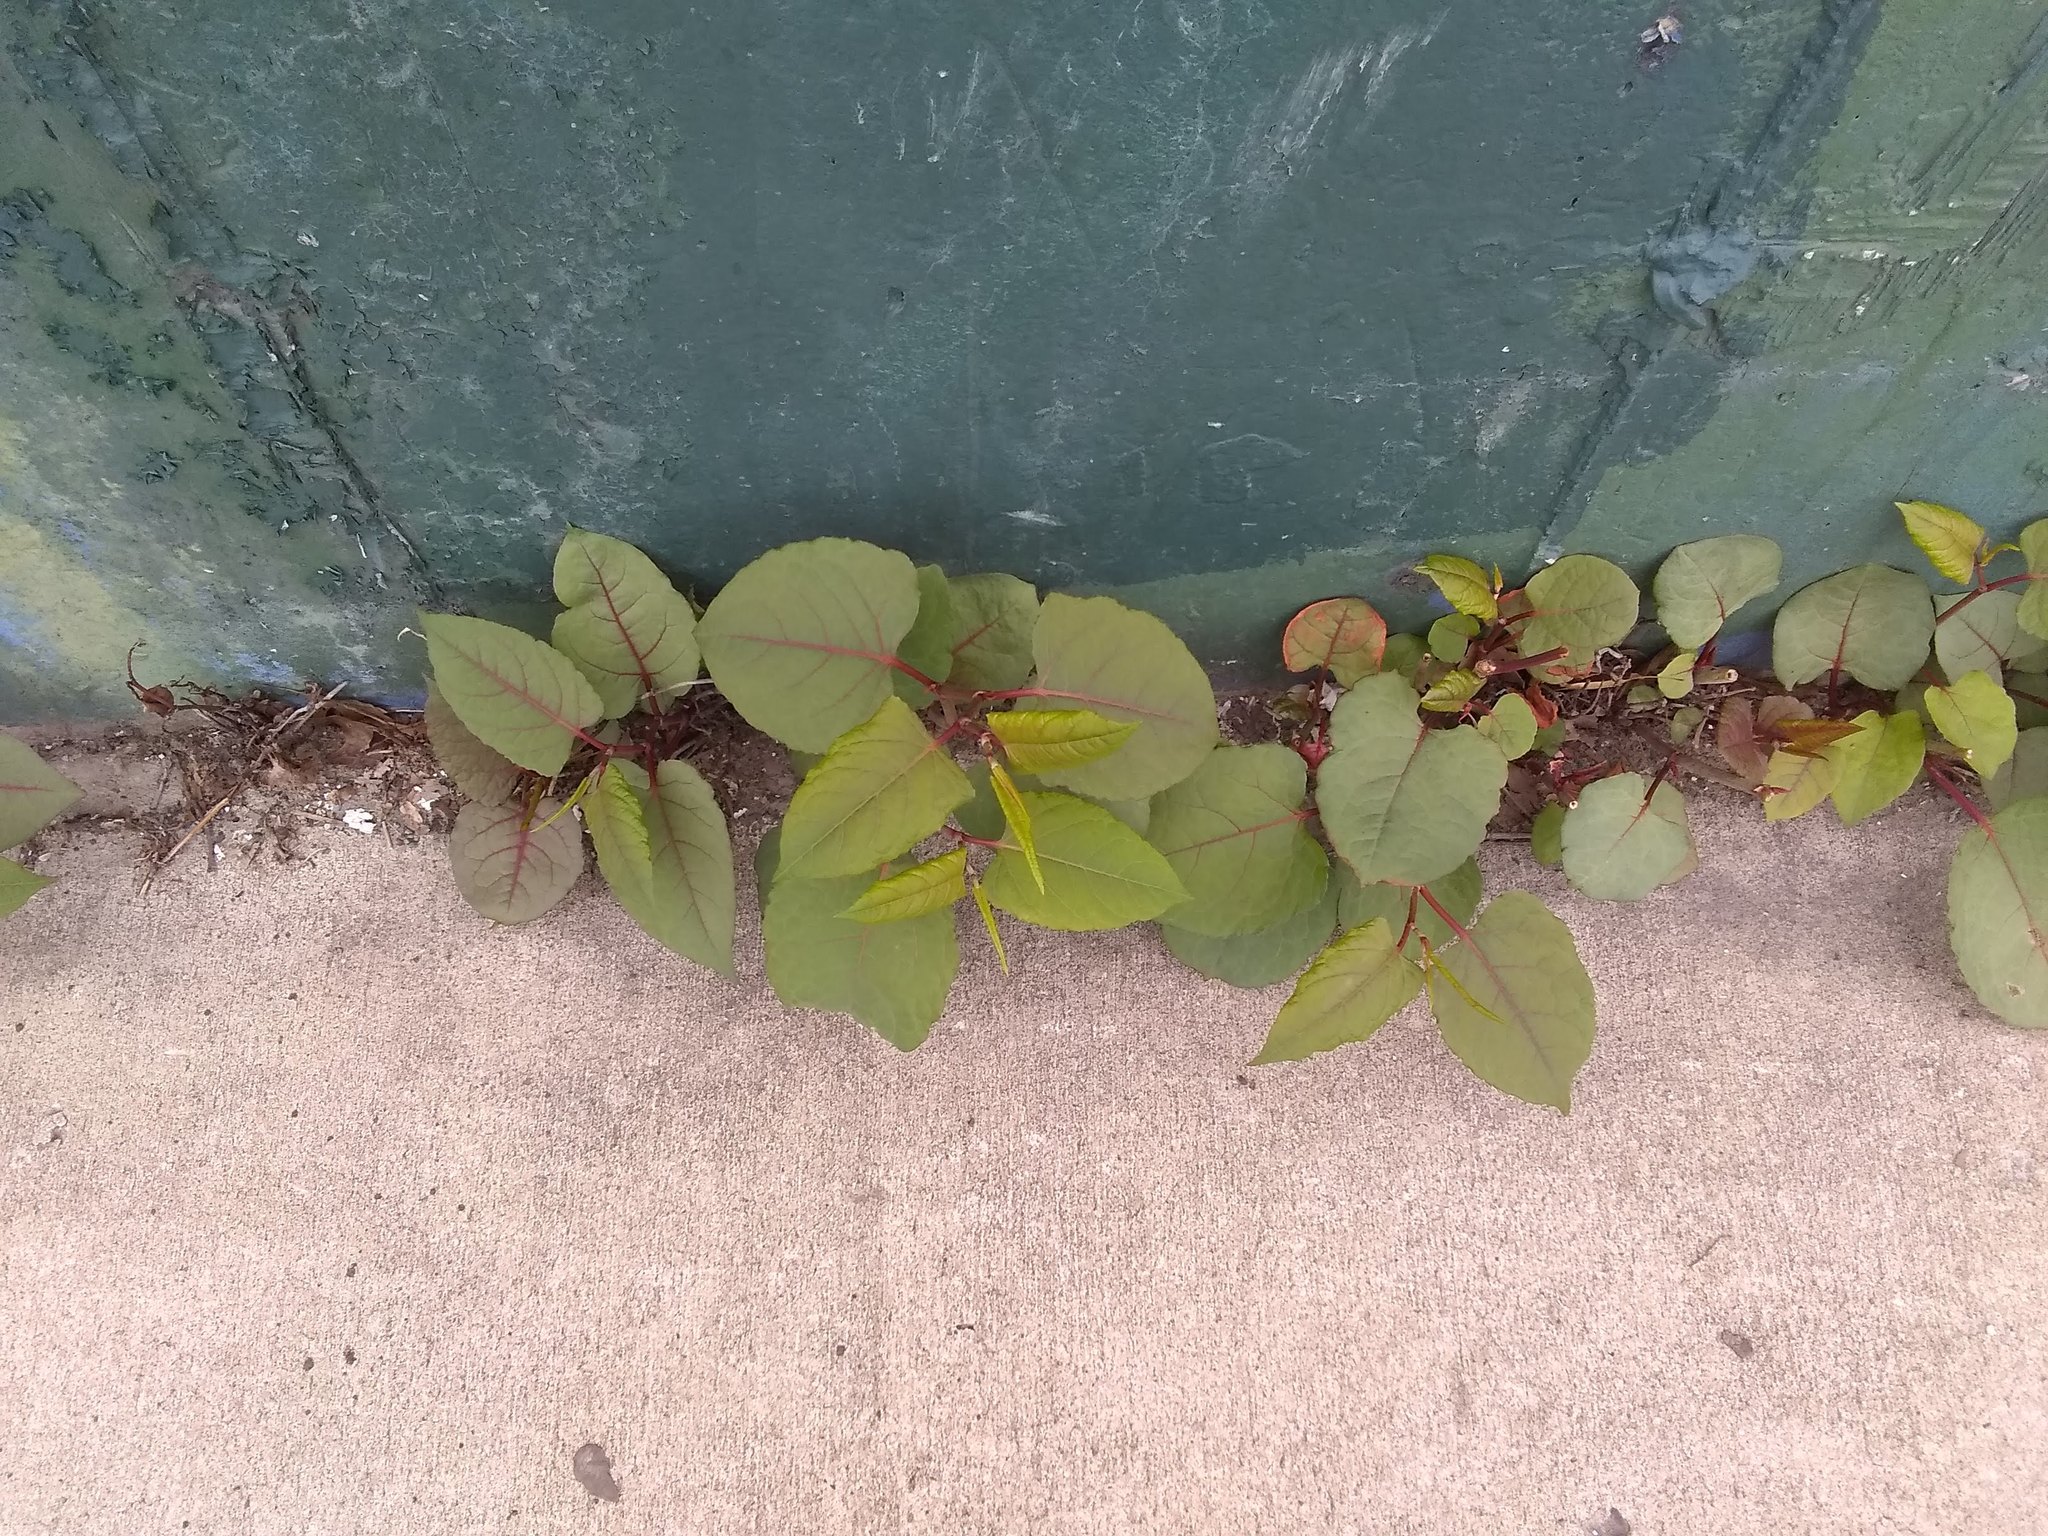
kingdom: Plantae
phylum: Tracheophyta
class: Magnoliopsida
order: Caryophyllales
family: Polygonaceae
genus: Reynoutria
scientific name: Reynoutria japonica
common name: Japanese knotweed
